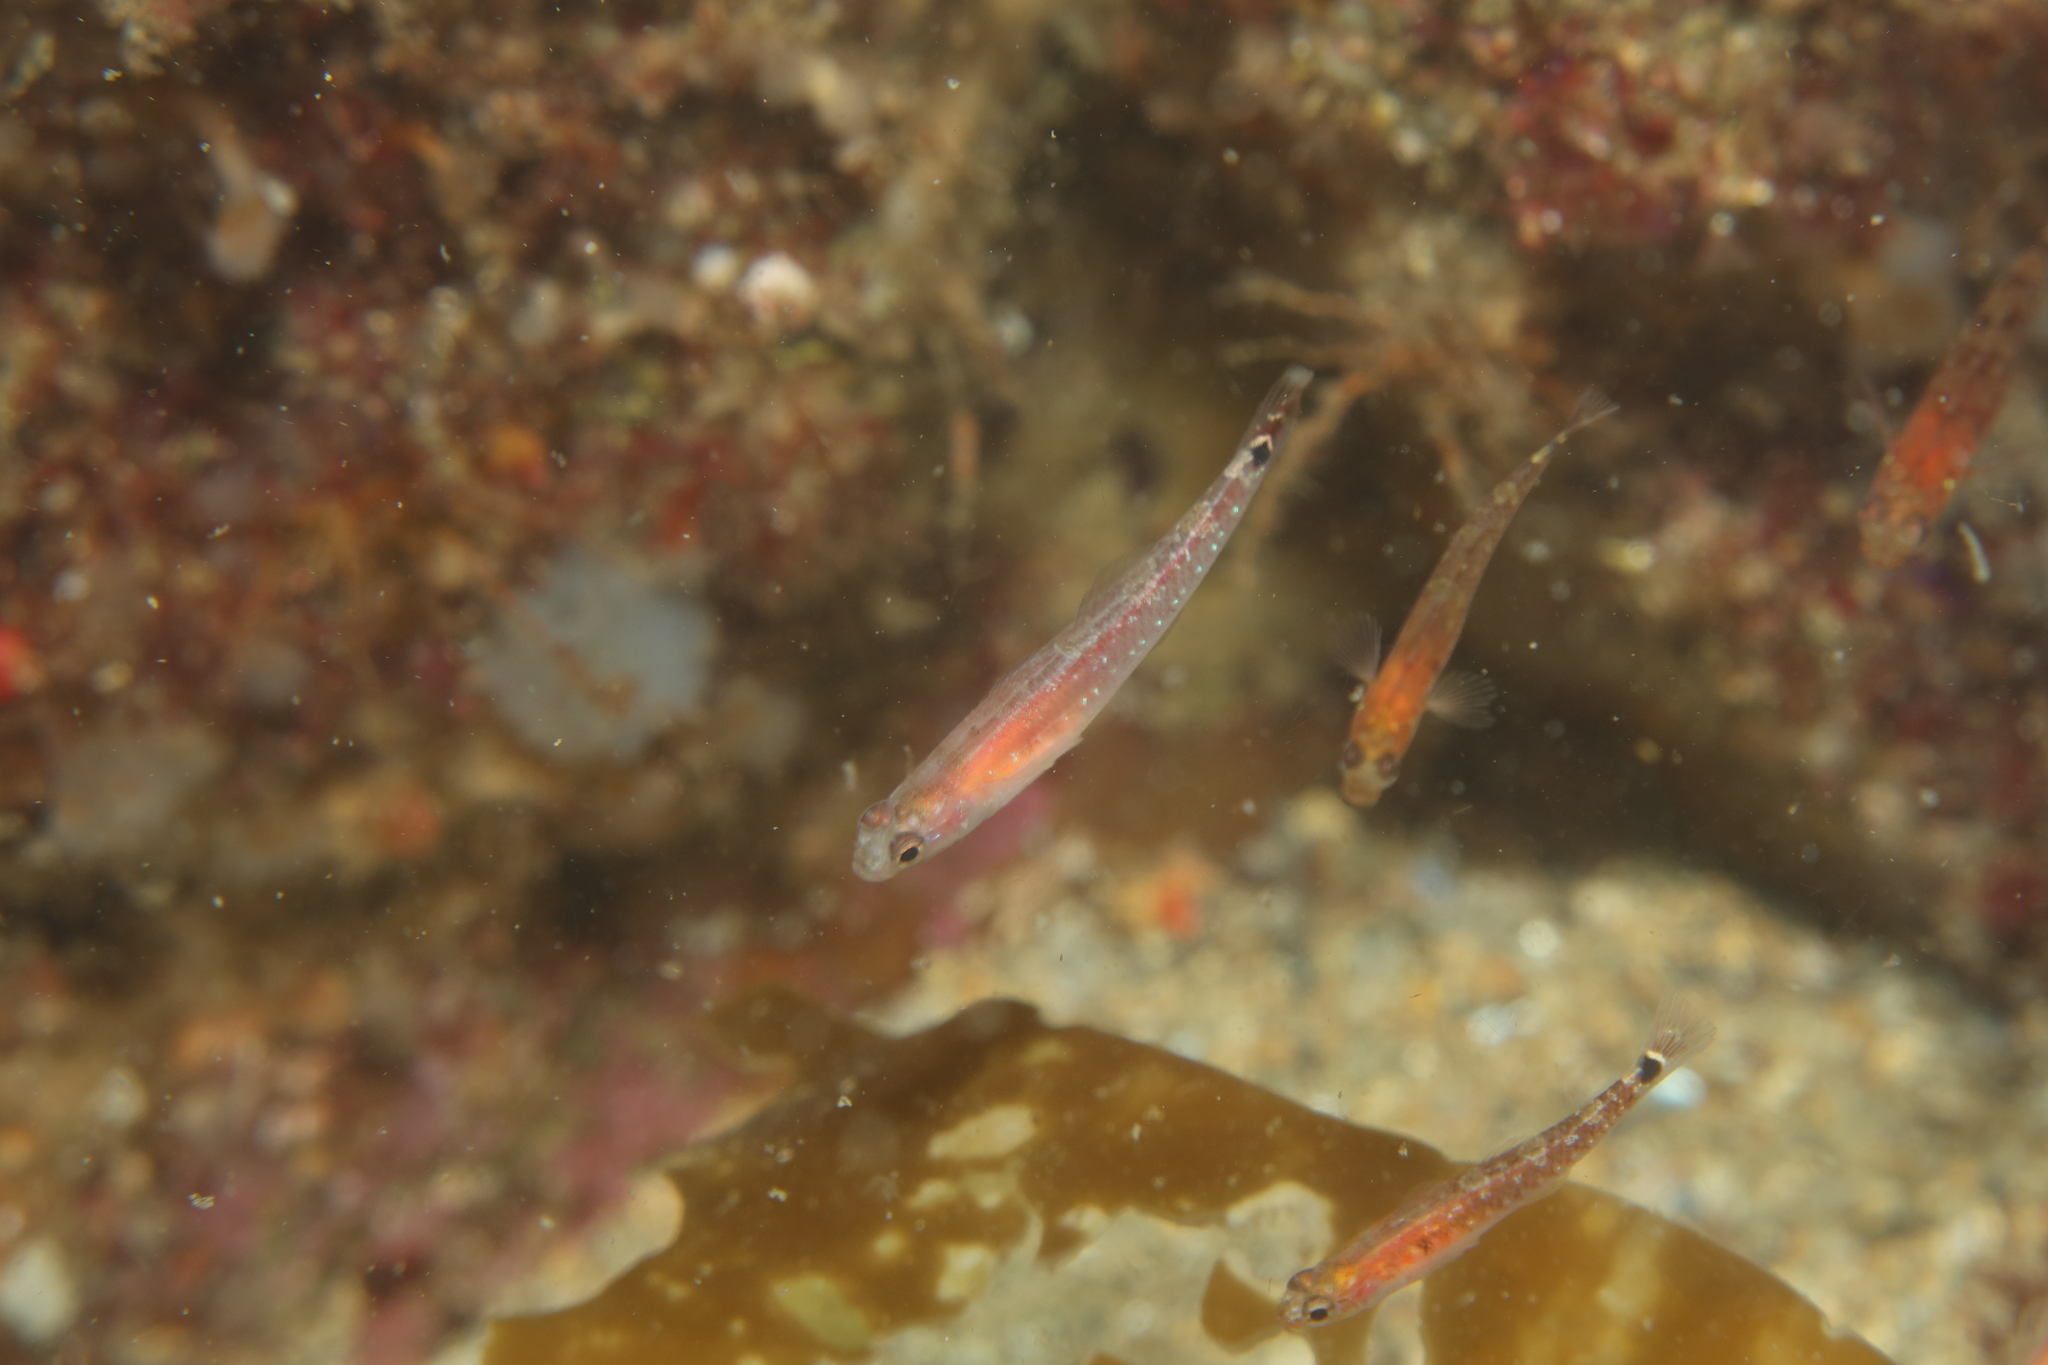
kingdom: Animalia
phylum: Chordata
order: Perciformes
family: Gobiidae
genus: Gobiusculus
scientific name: Gobiusculus flavescens
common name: Two-spotted goby
